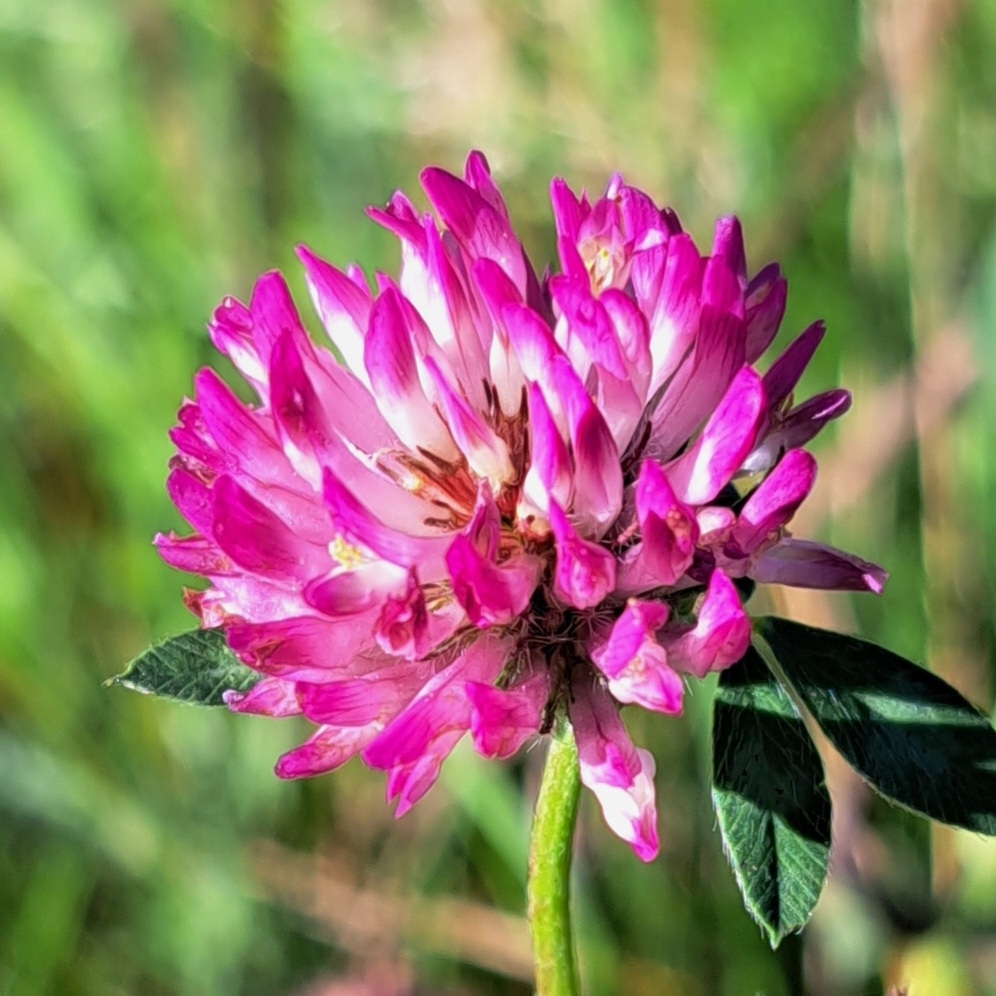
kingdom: Plantae
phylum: Tracheophyta
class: Magnoliopsida
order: Fabales
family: Fabaceae
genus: Trifolium
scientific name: Trifolium pratense
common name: Red clover
